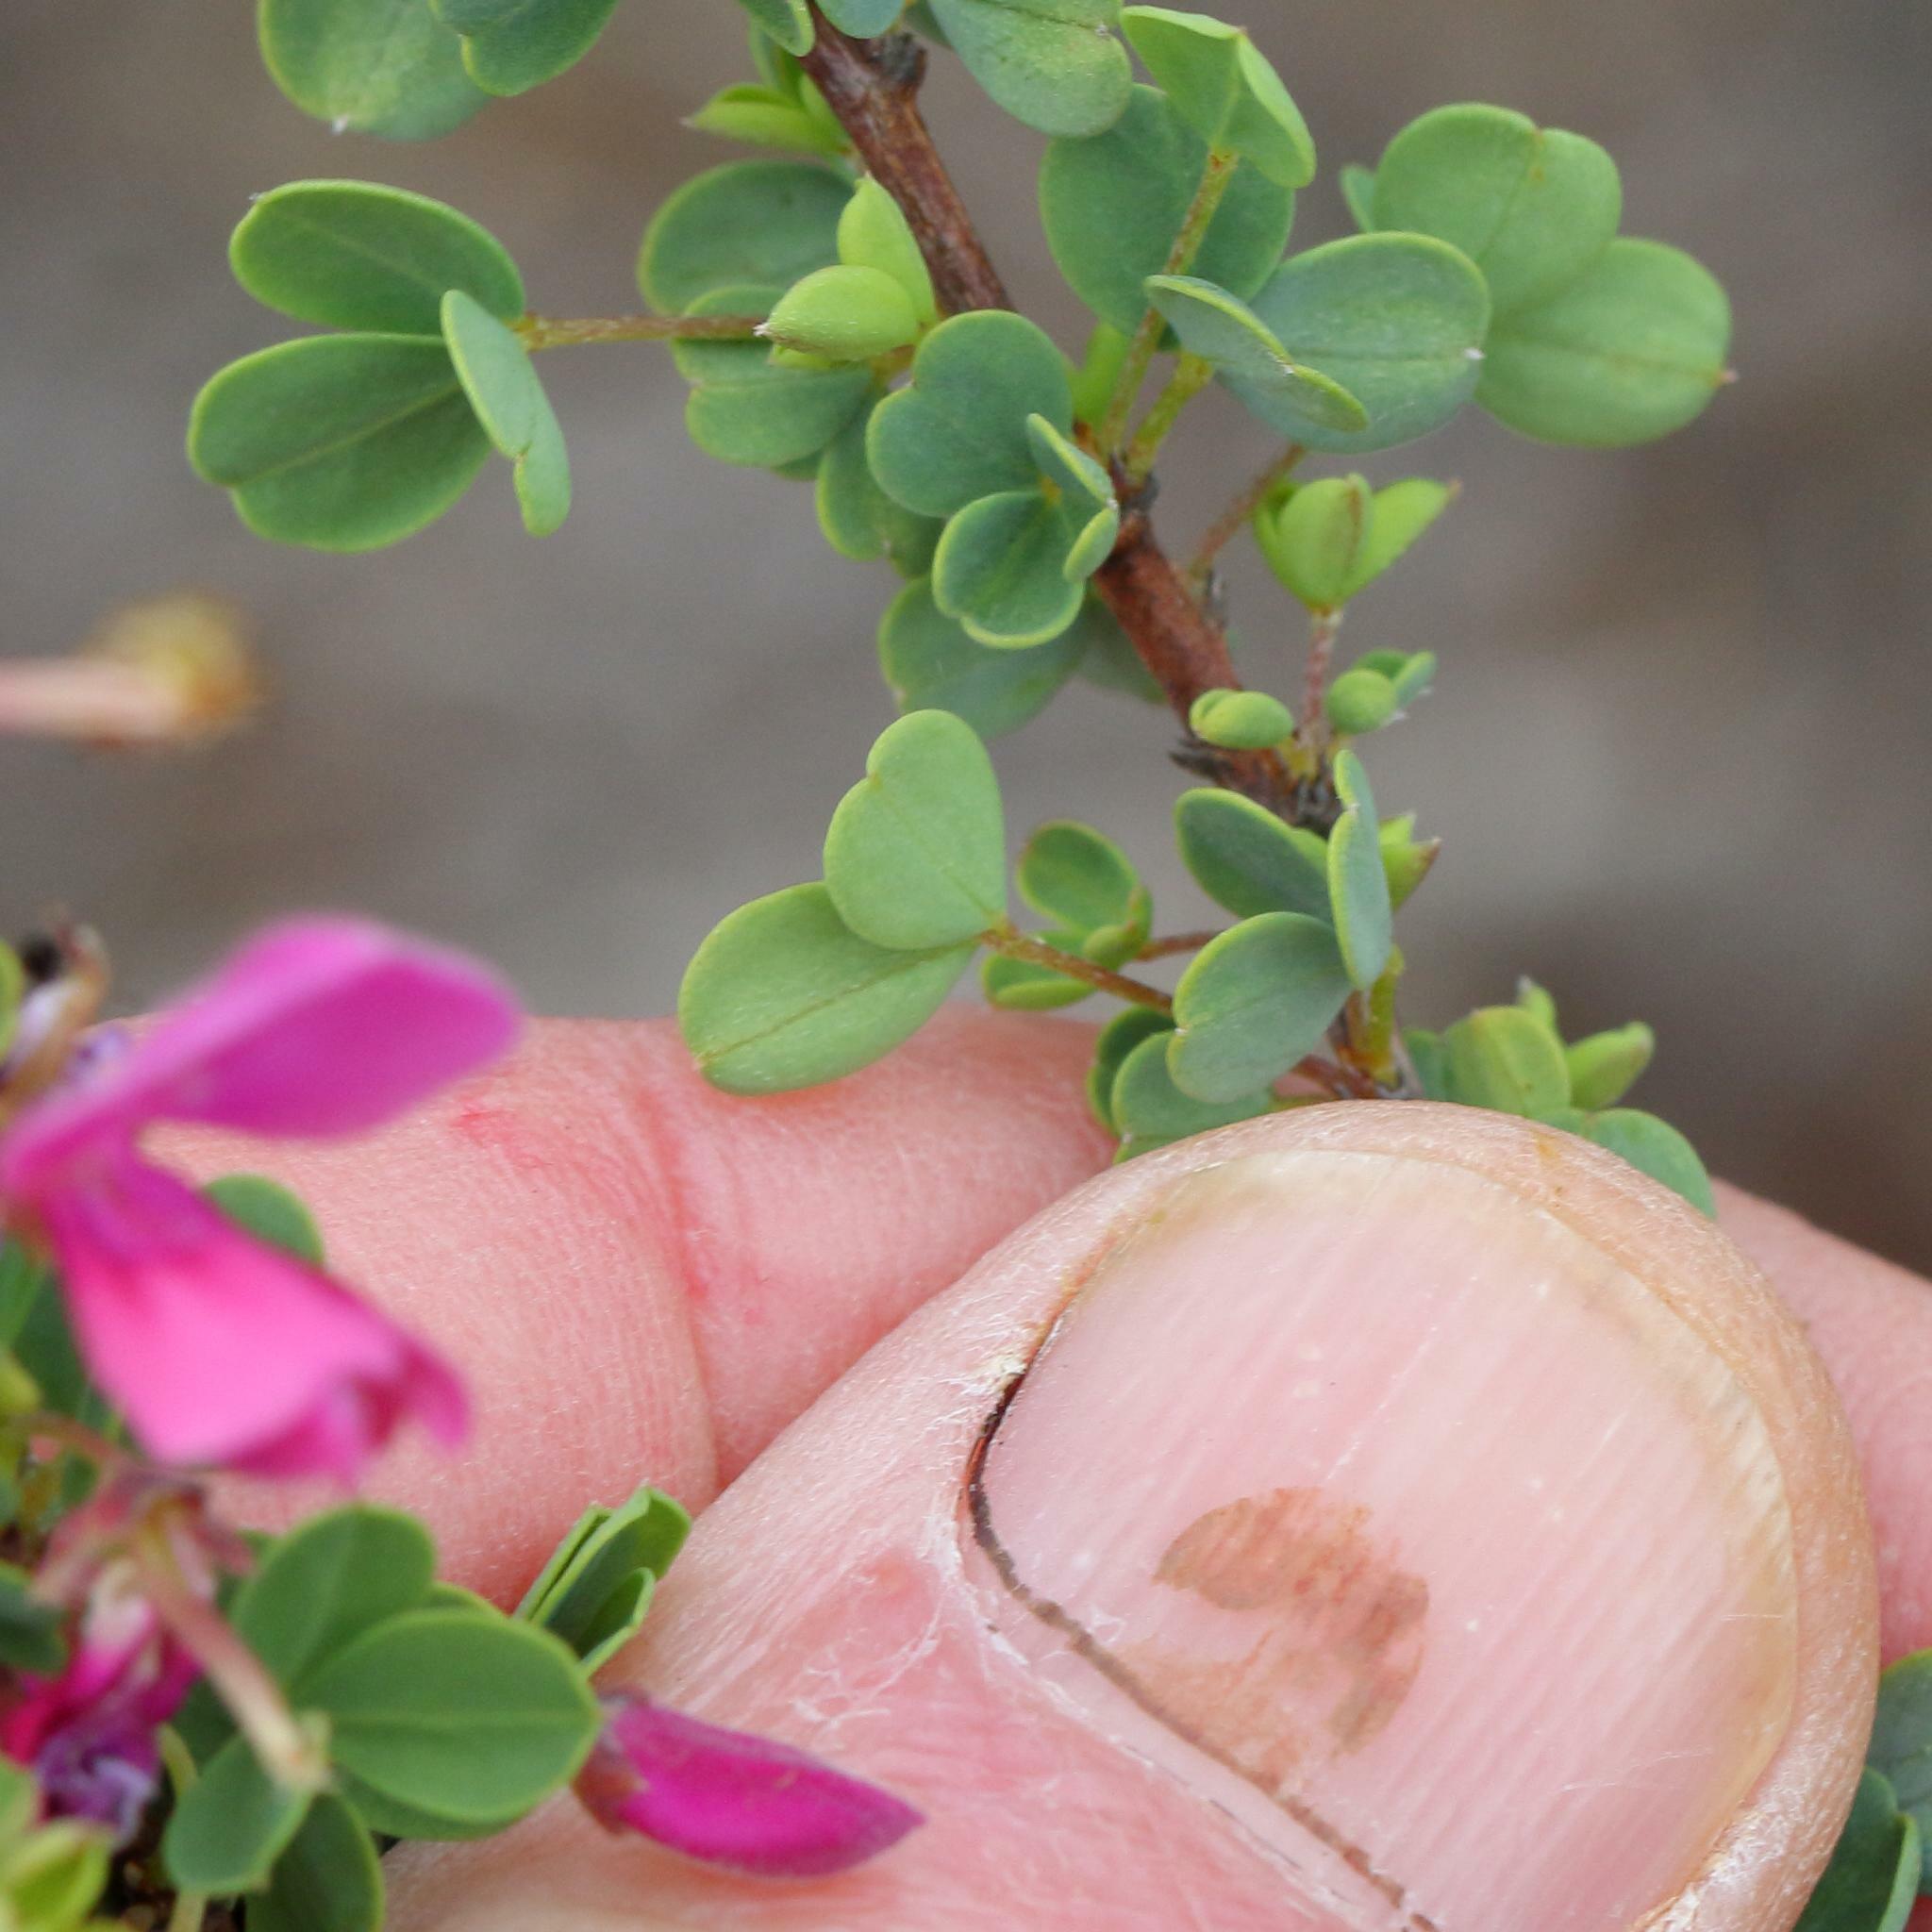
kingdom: Plantae
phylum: Tracheophyta
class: Magnoliopsida
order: Fabales
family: Fabaceae
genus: Indigofera
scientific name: Indigofera
